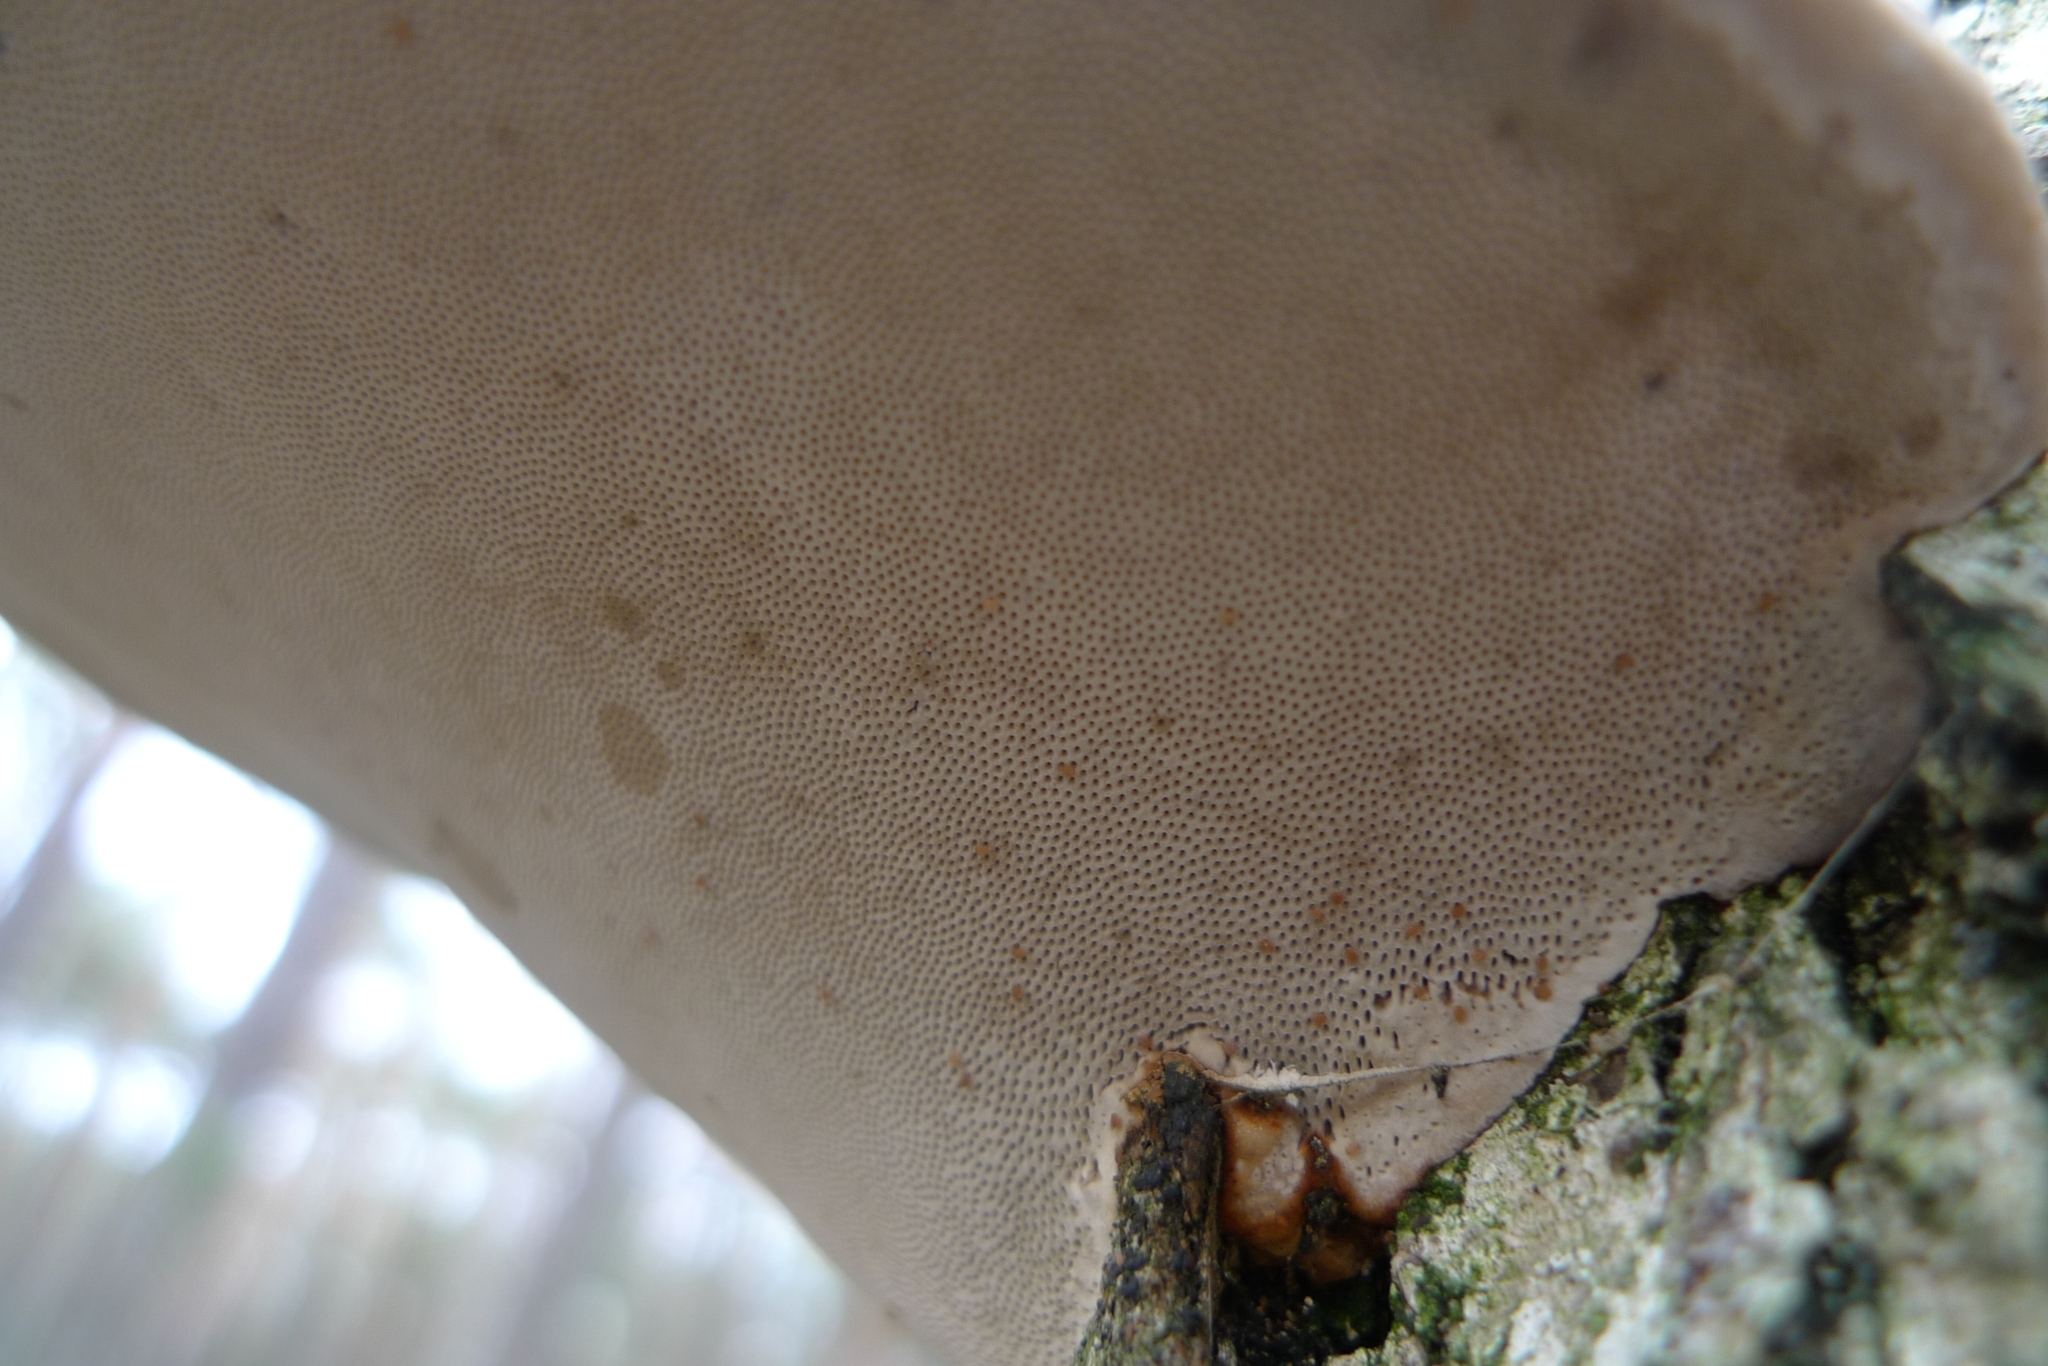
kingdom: Fungi
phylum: Basidiomycota
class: Agaricomycetes
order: Polyporales
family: Polyporaceae
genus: Fomes
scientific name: Fomes fomentarius
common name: Hoof fungus
